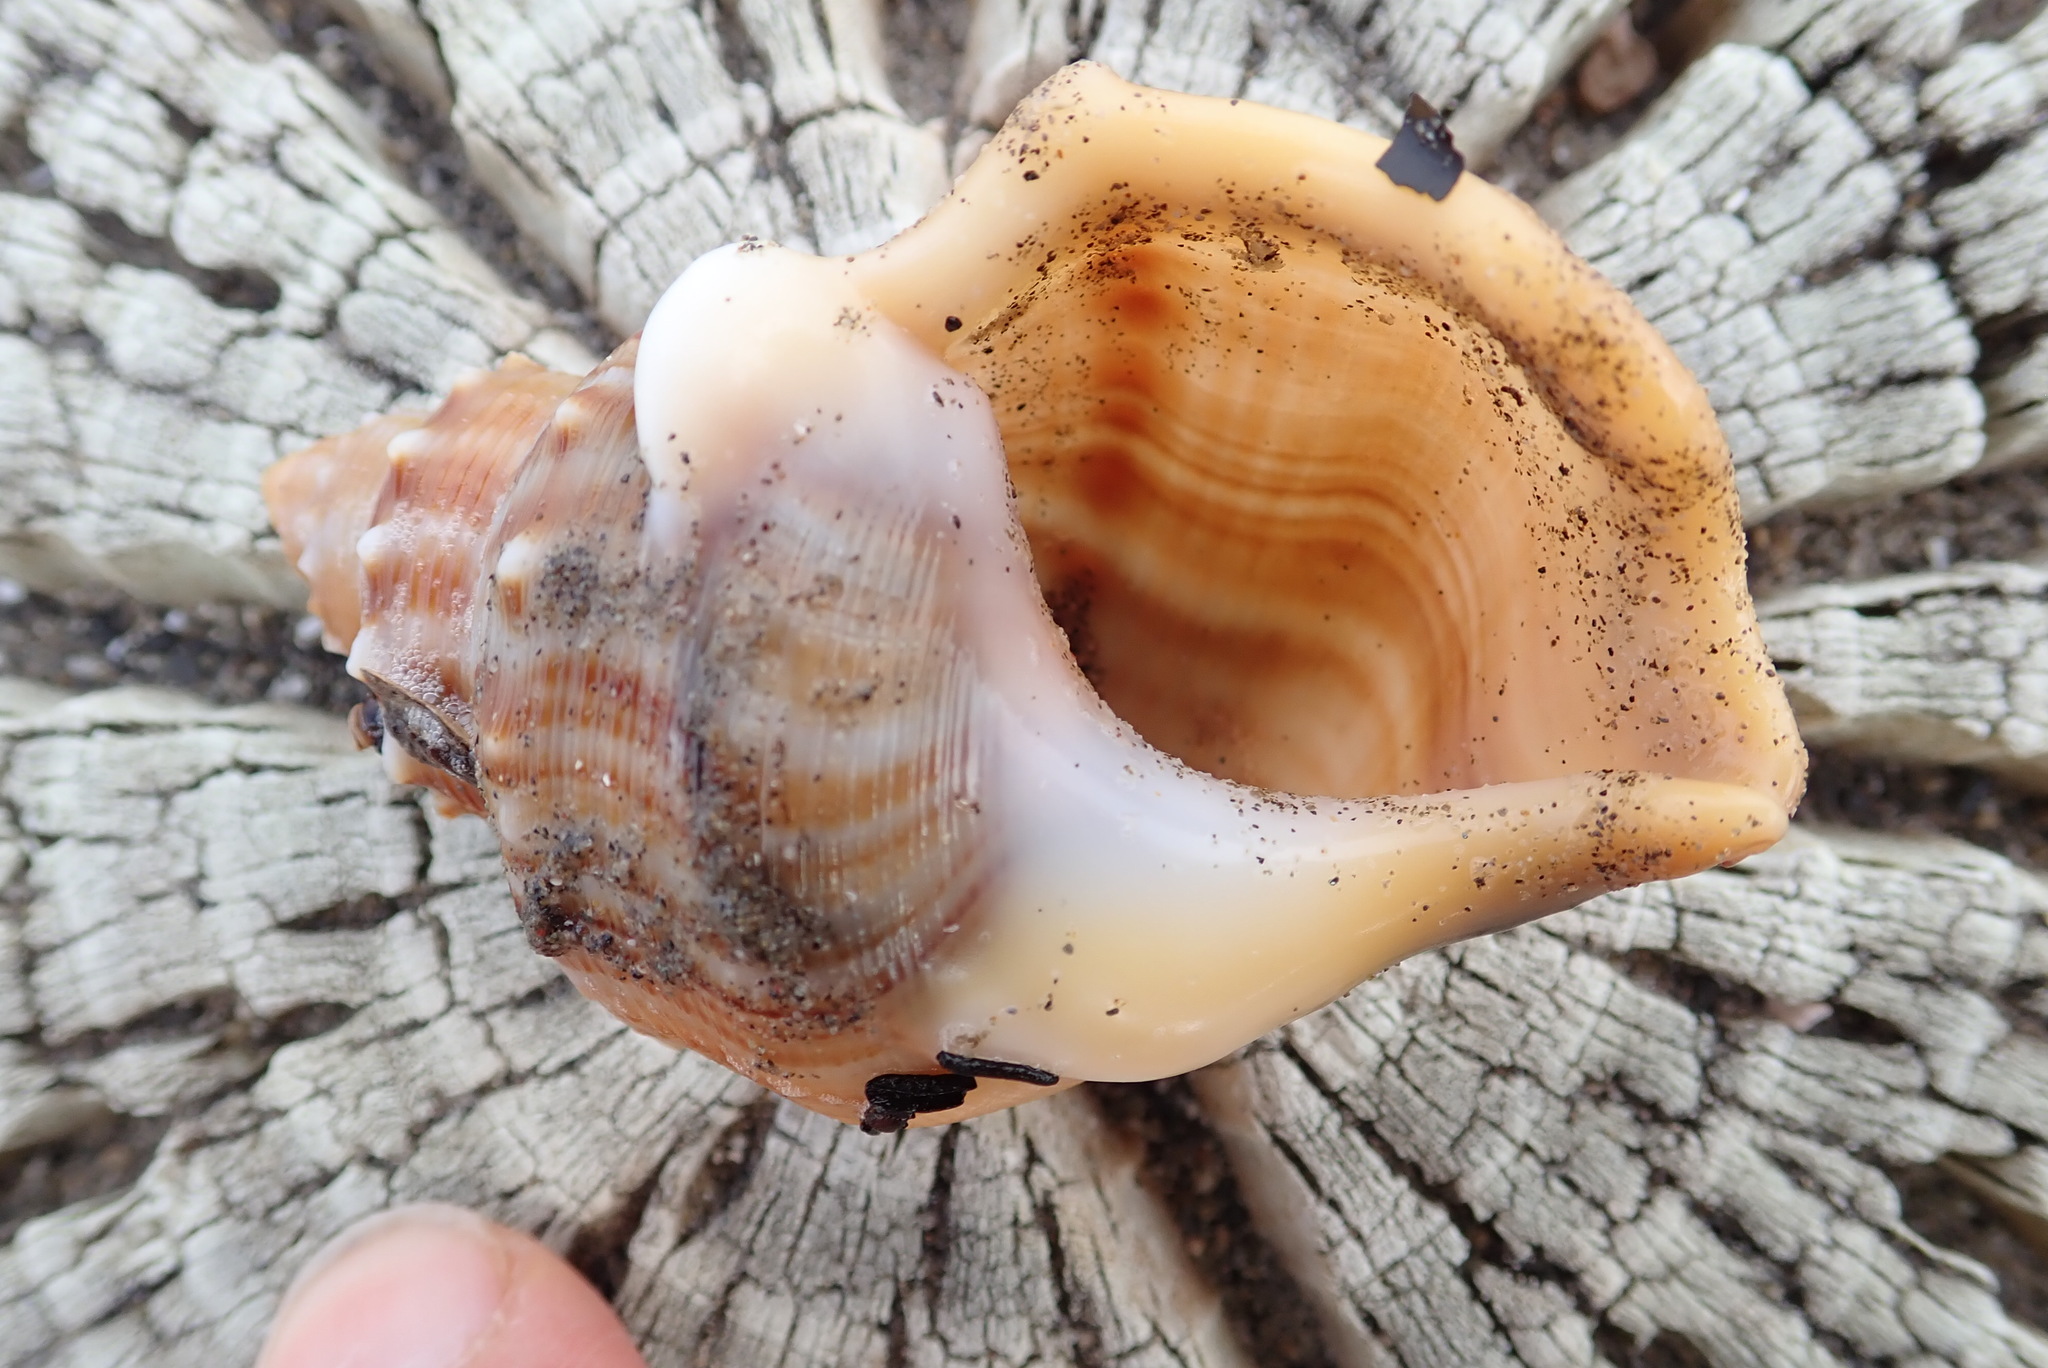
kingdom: Animalia
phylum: Mollusca
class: Gastropoda
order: Littorinimorpha
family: Struthiolariidae
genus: Struthiolaria
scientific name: Struthiolaria papulosa
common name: Large ostrich foot
